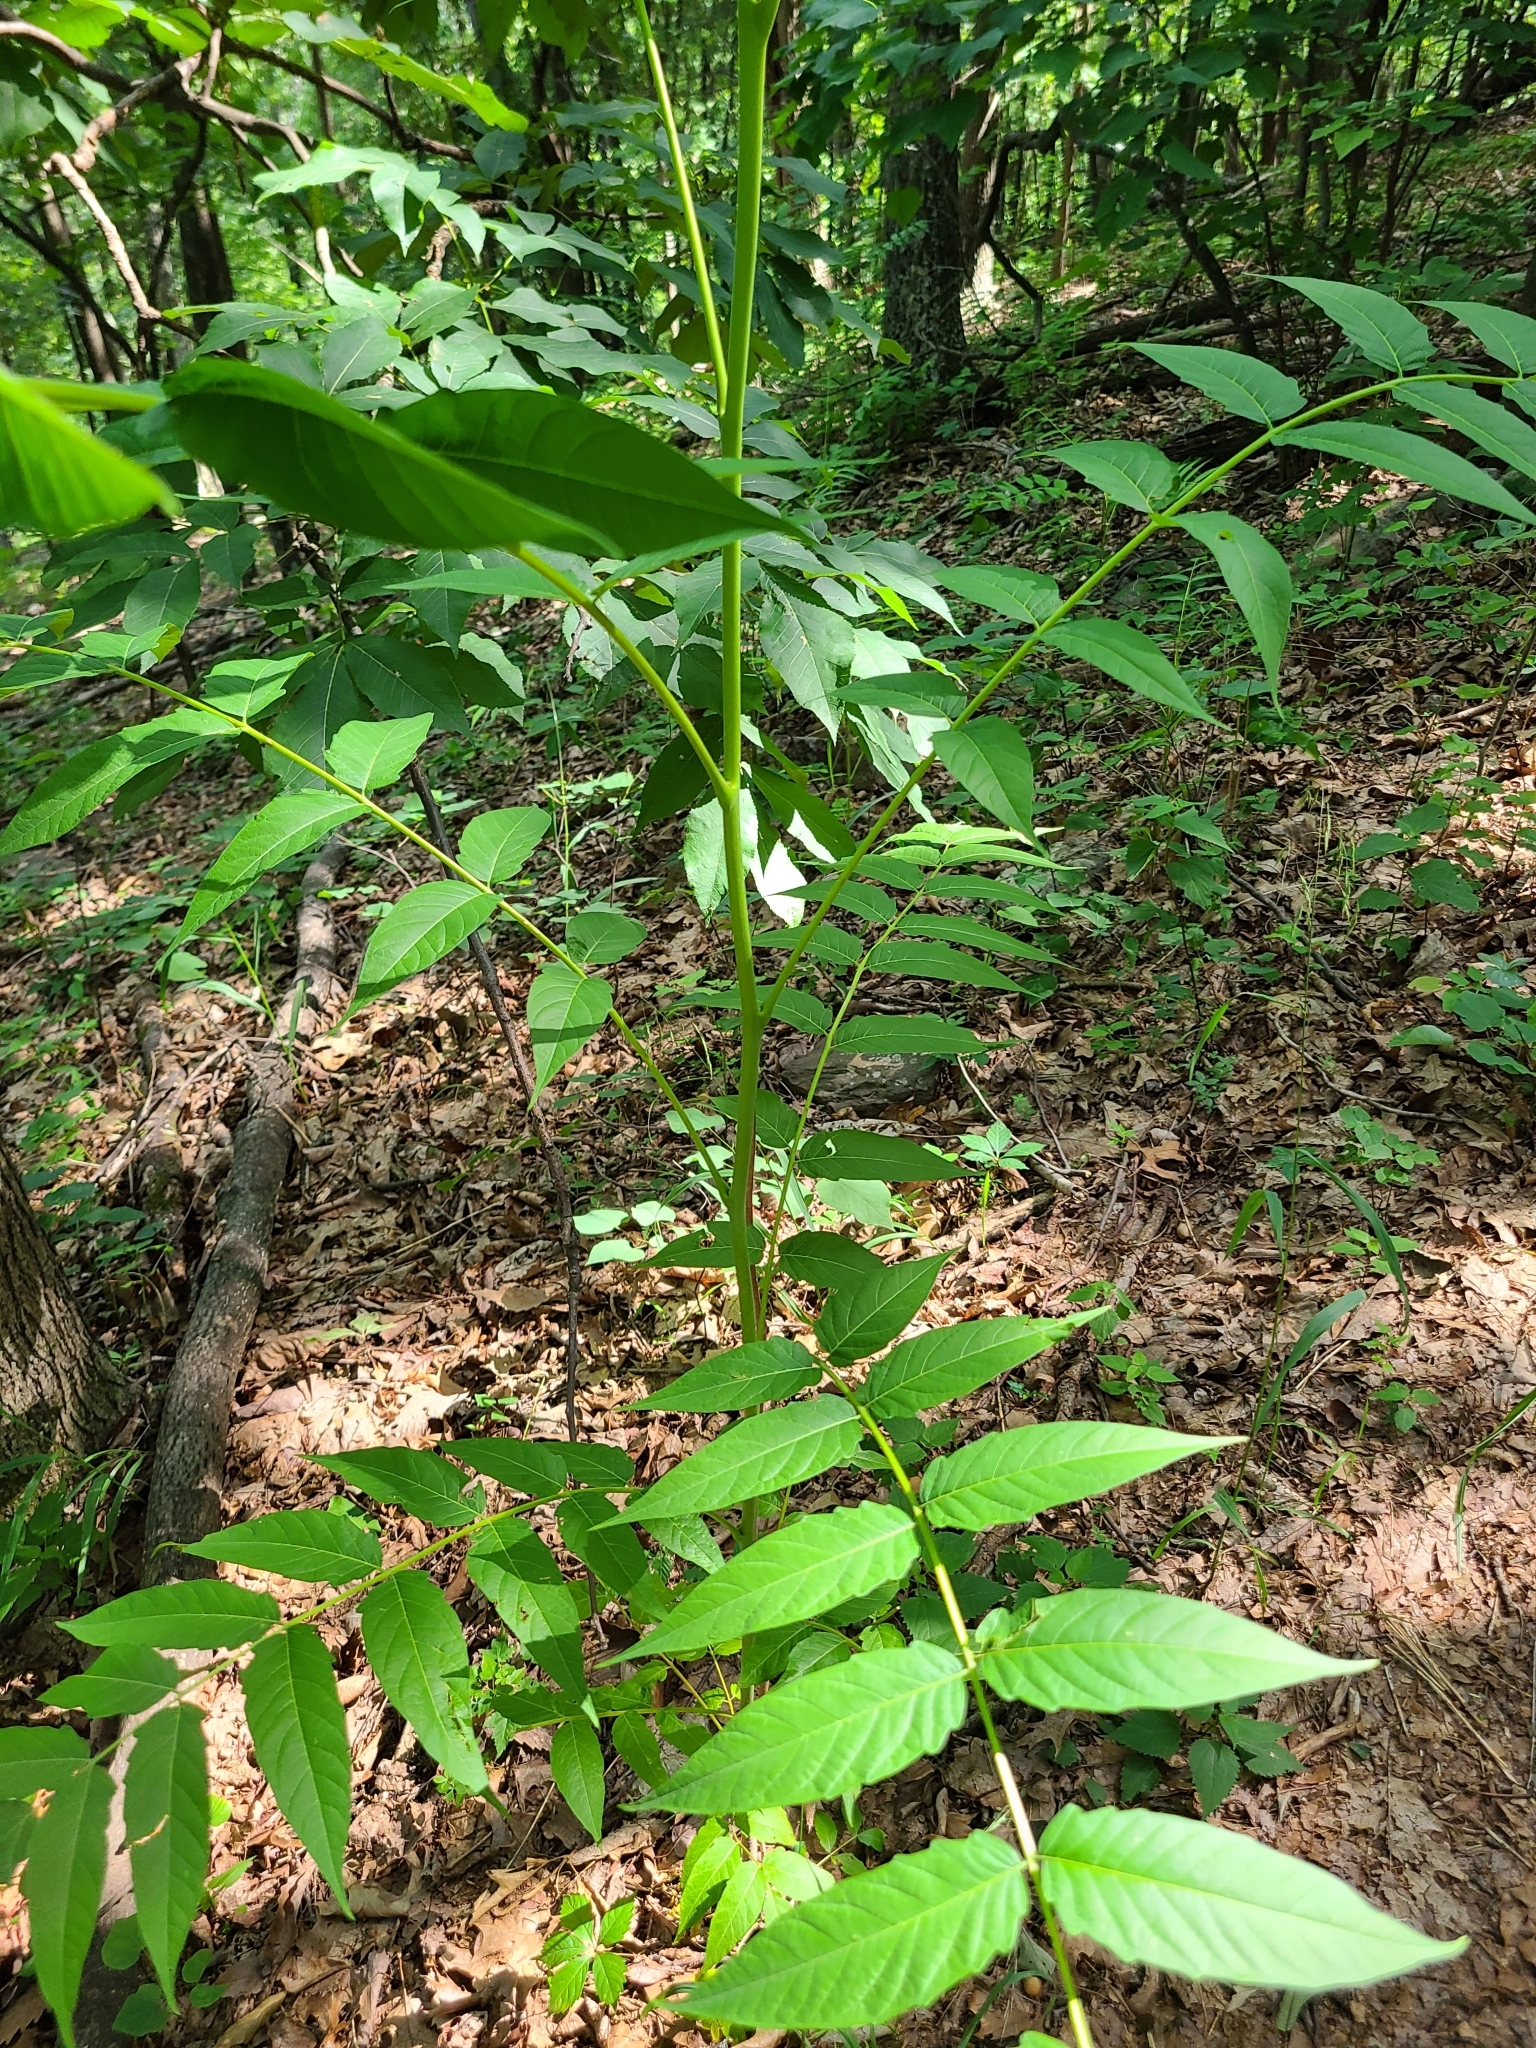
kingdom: Plantae
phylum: Tracheophyta
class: Magnoliopsida
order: Sapindales
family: Simaroubaceae
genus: Ailanthus
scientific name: Ailanthus altissima
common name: Tree-of-heaven
